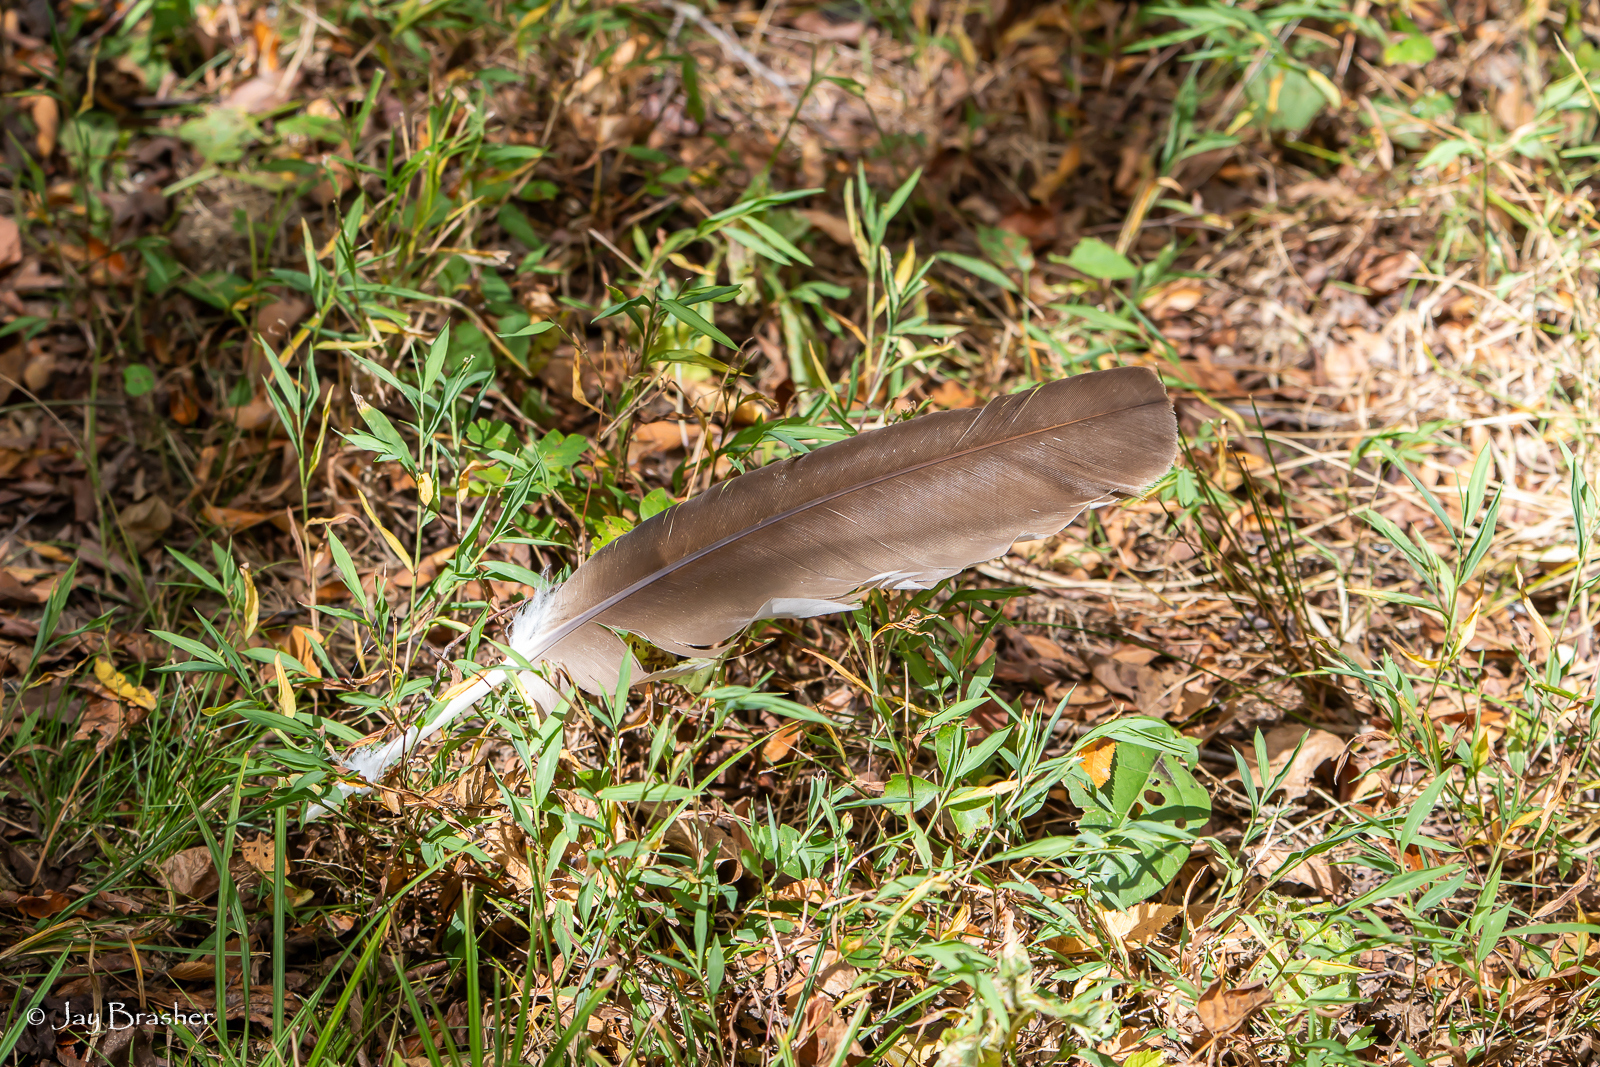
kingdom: Animalia
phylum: Chordata
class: Aves
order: Accipitriformes
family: Cathartidae
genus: Cathartes
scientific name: Cathartes aura
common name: Turkey vulture
